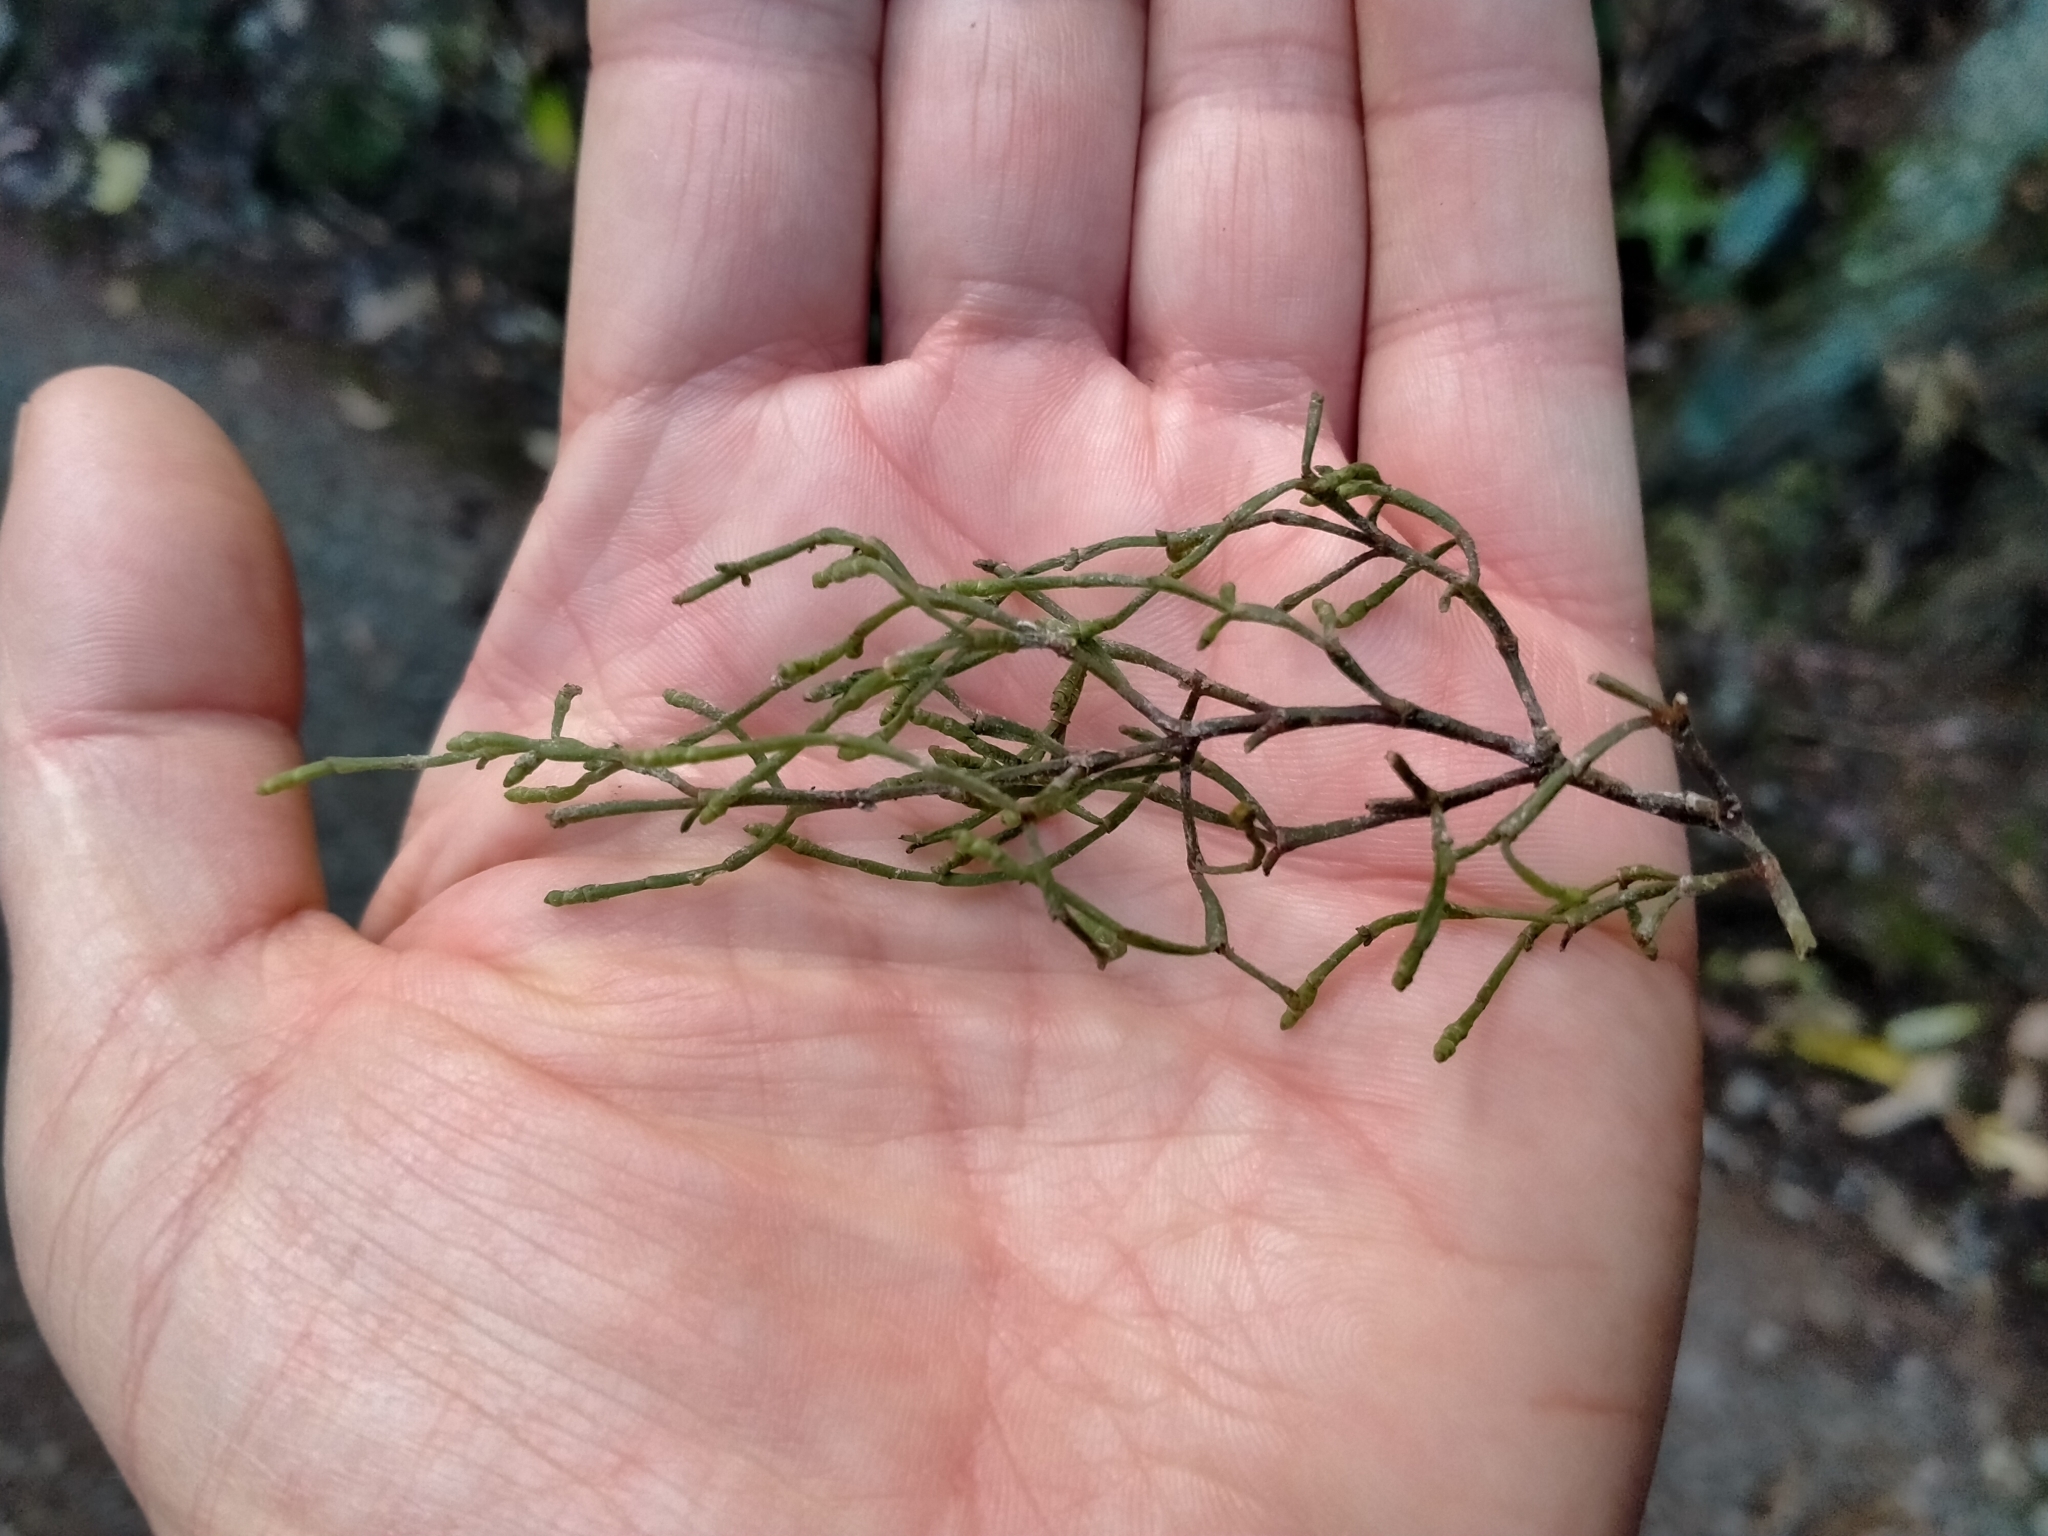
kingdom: Plantae
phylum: Tracheophyta
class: Magnoliopsida
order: Santalales
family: Viscaceae
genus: Korthalsella
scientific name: Korthalsella salicornioides
